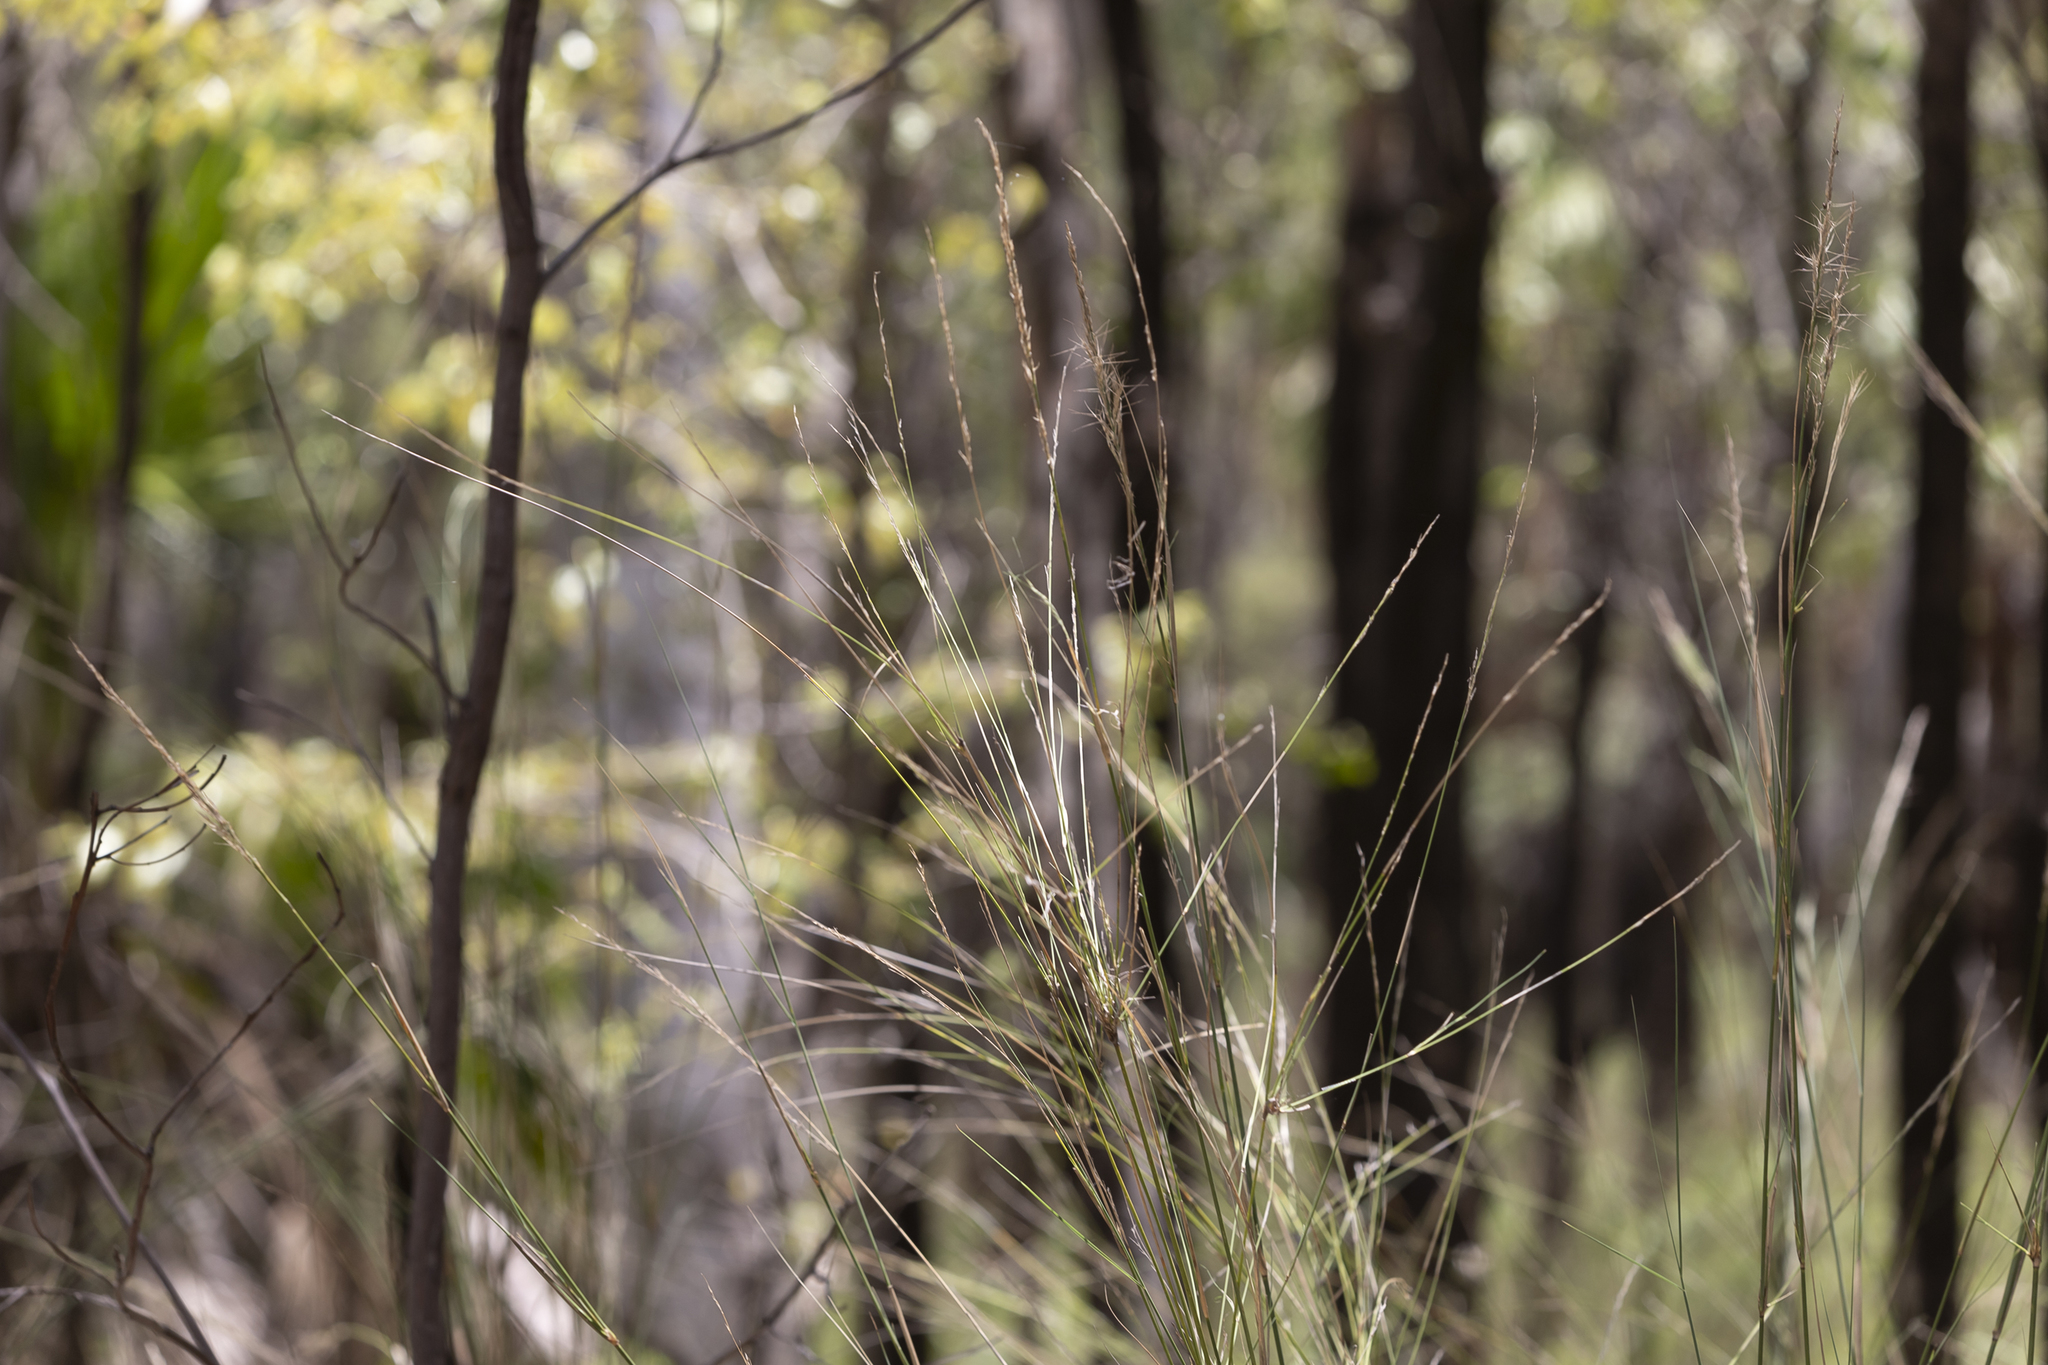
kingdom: Plantae
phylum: Tracheophyta
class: Liliopsida
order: Poales
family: Poaceae
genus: Aristida
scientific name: Aristida lignosa
